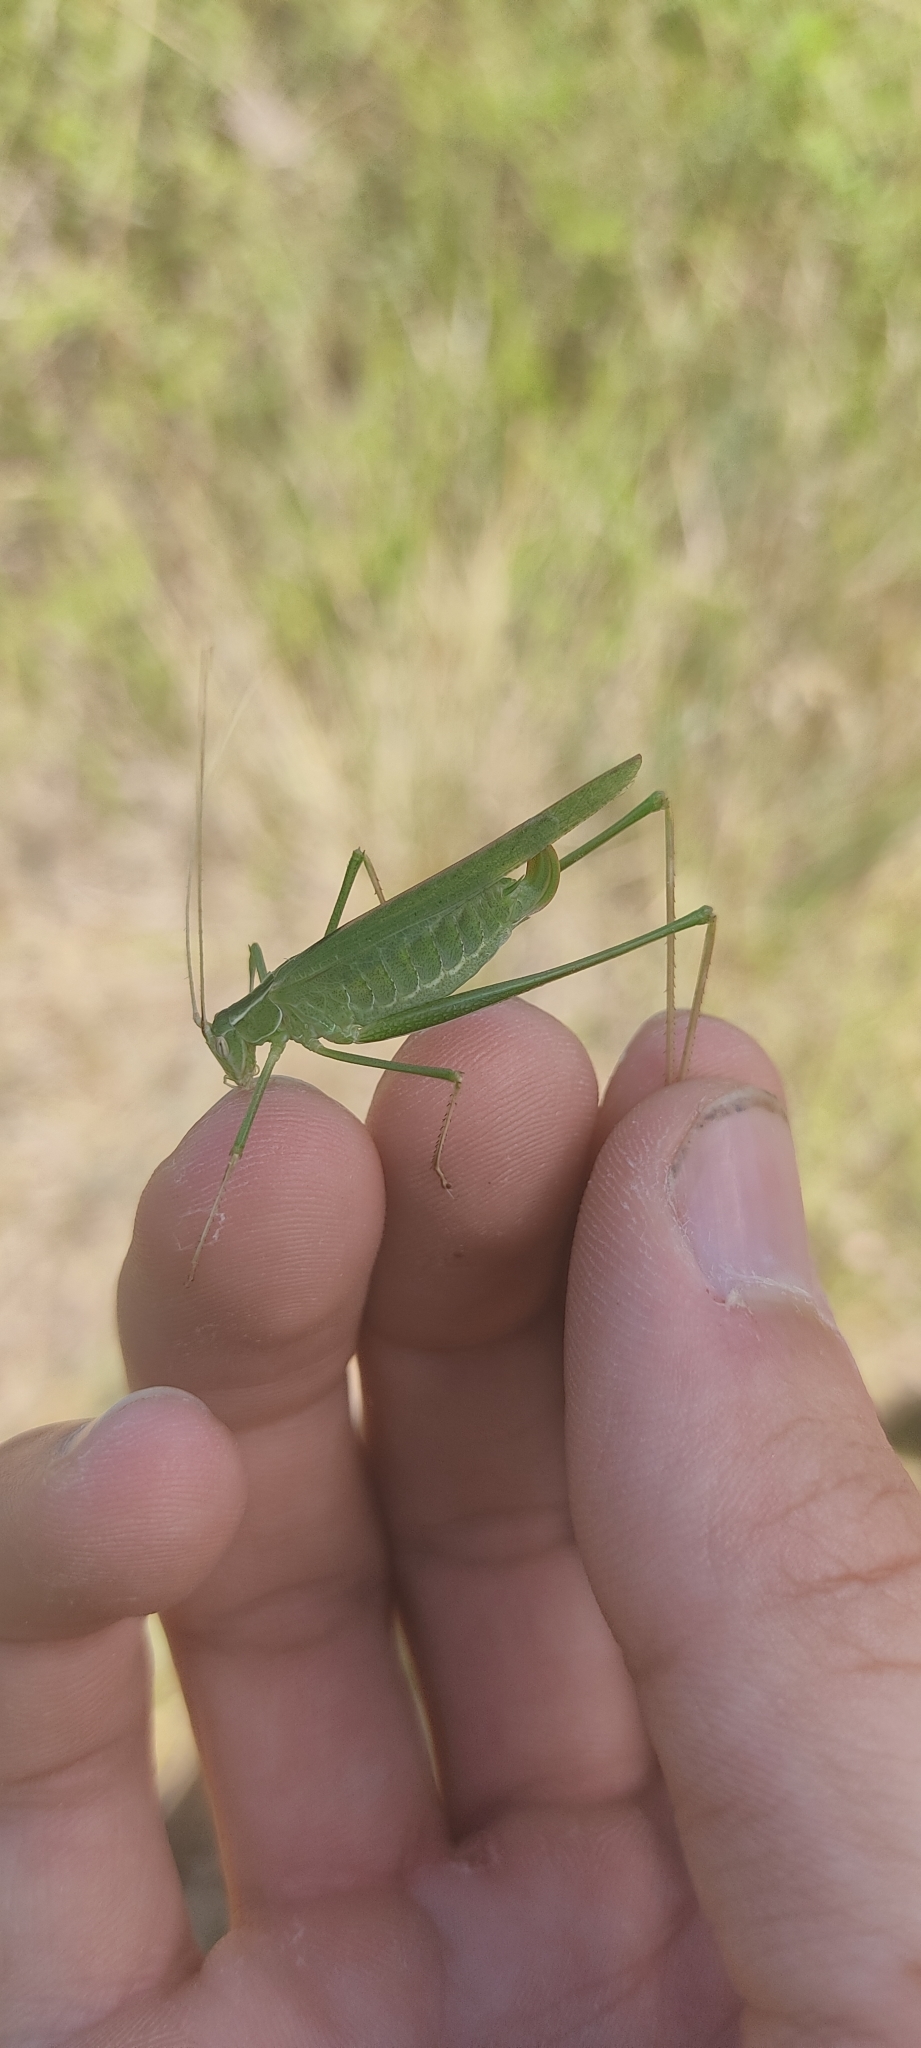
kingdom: Animalia
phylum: Arthropoda
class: Insecta
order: Orthoptera
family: Tettigoniidae
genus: Tylopsis
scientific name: Tylopsis lilifolia
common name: Lily bush-cricket
